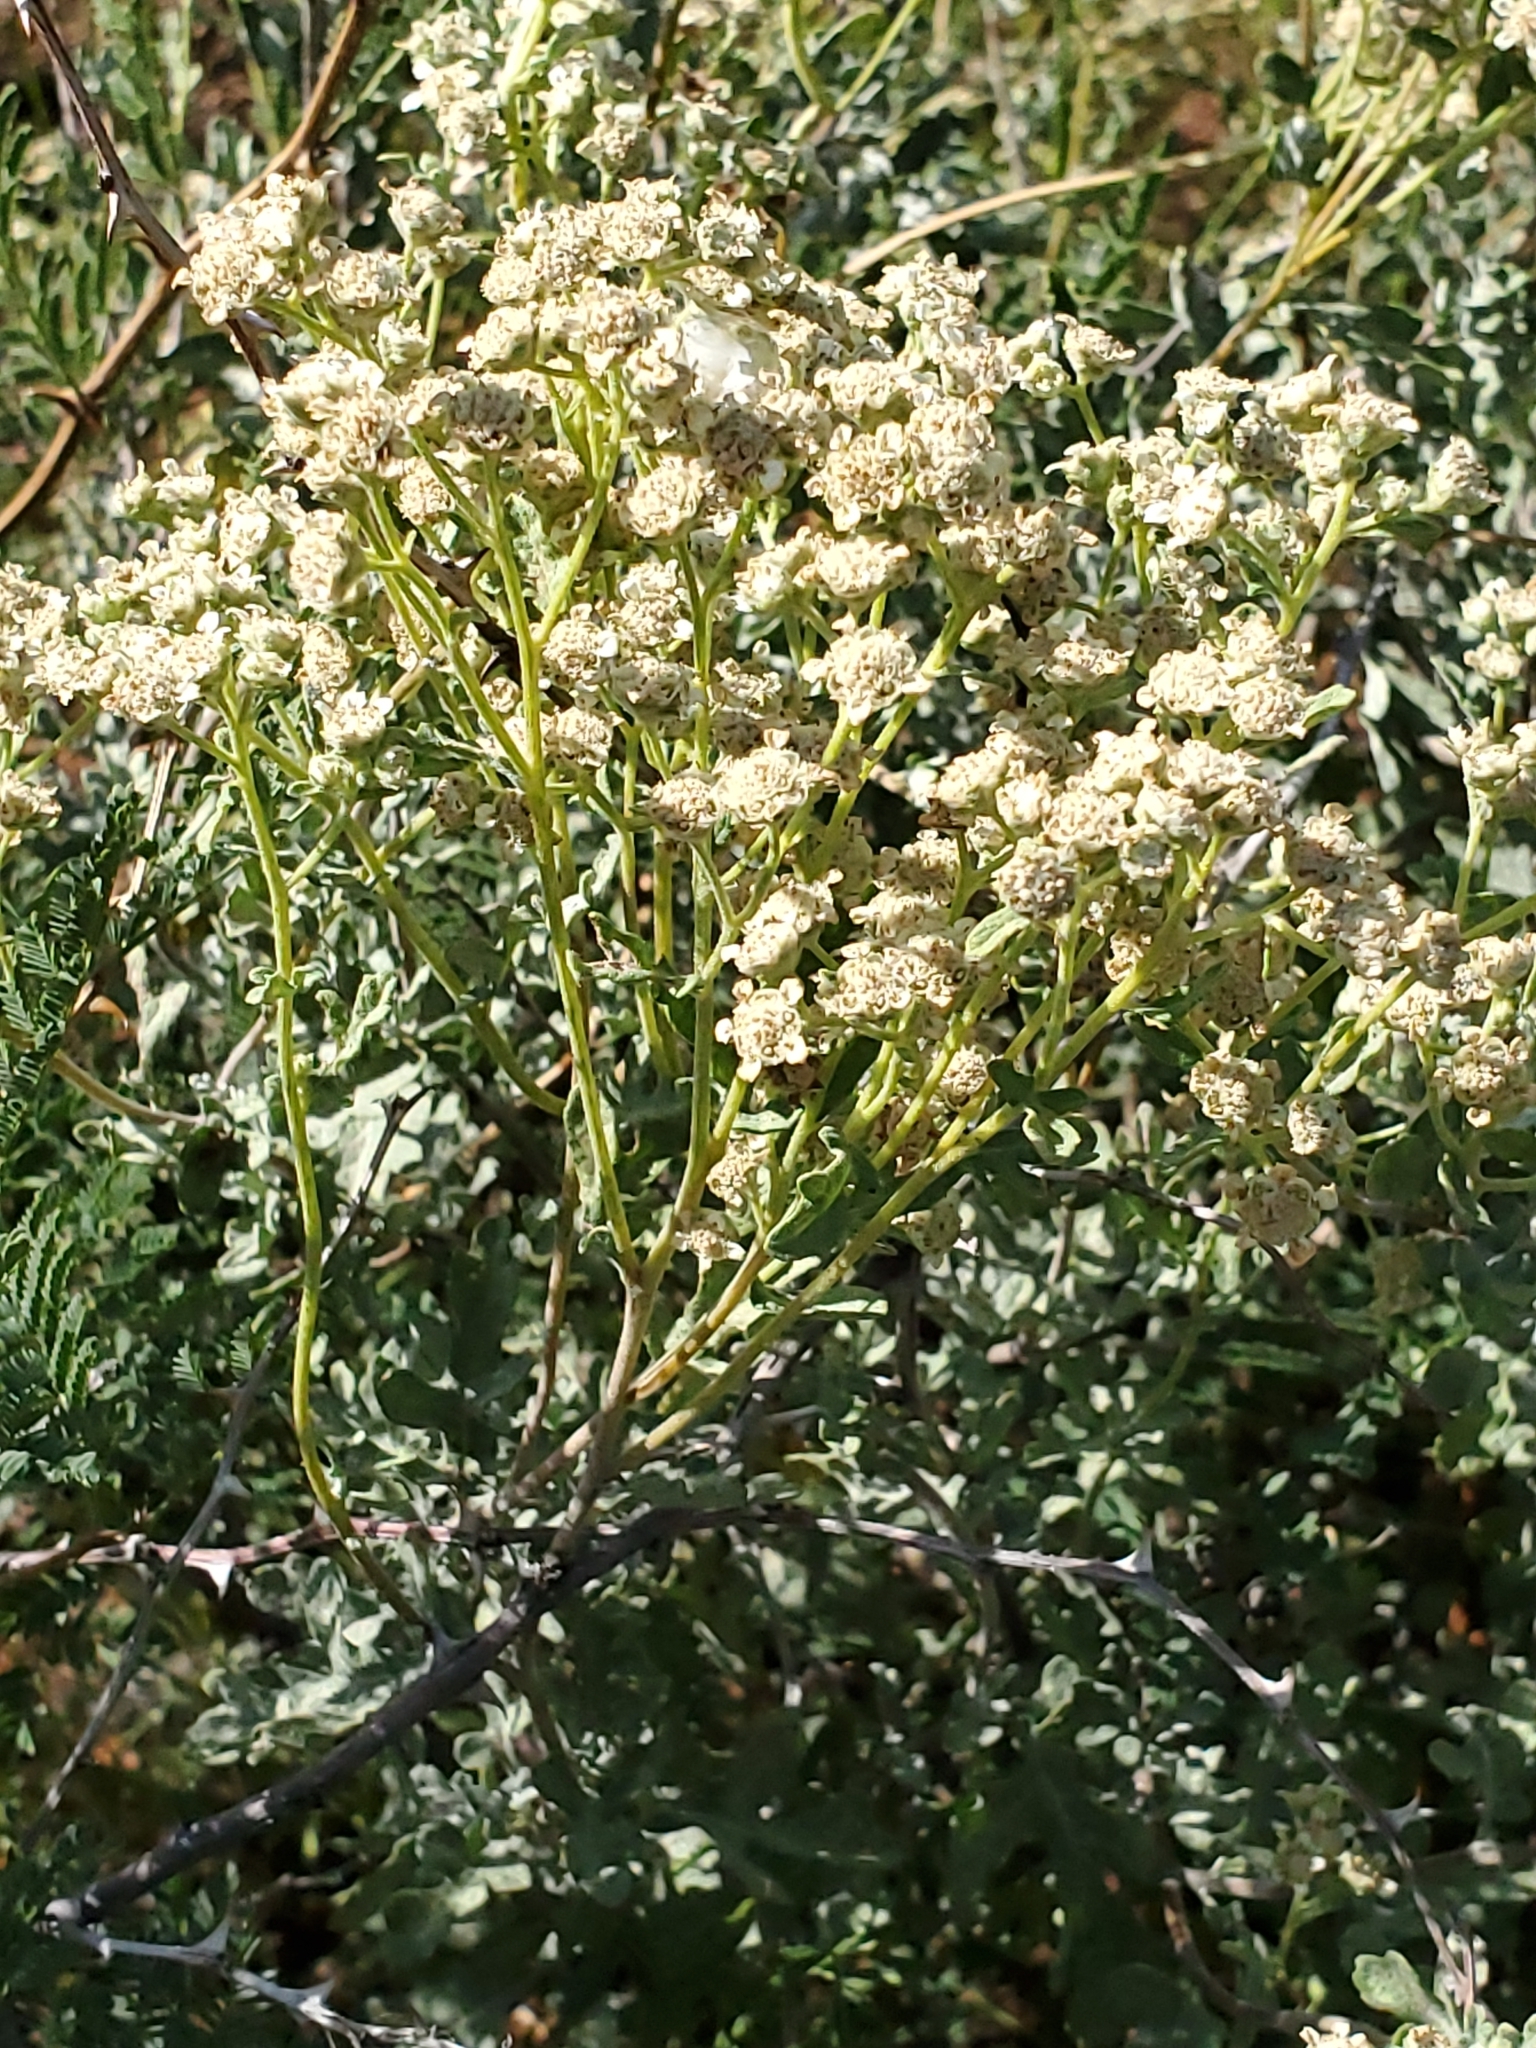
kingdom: Plantae
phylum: Tracheophyta
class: Magnoliopsida
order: Asterales
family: Asteraceae
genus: Parthenium
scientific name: Parthenium incanum
